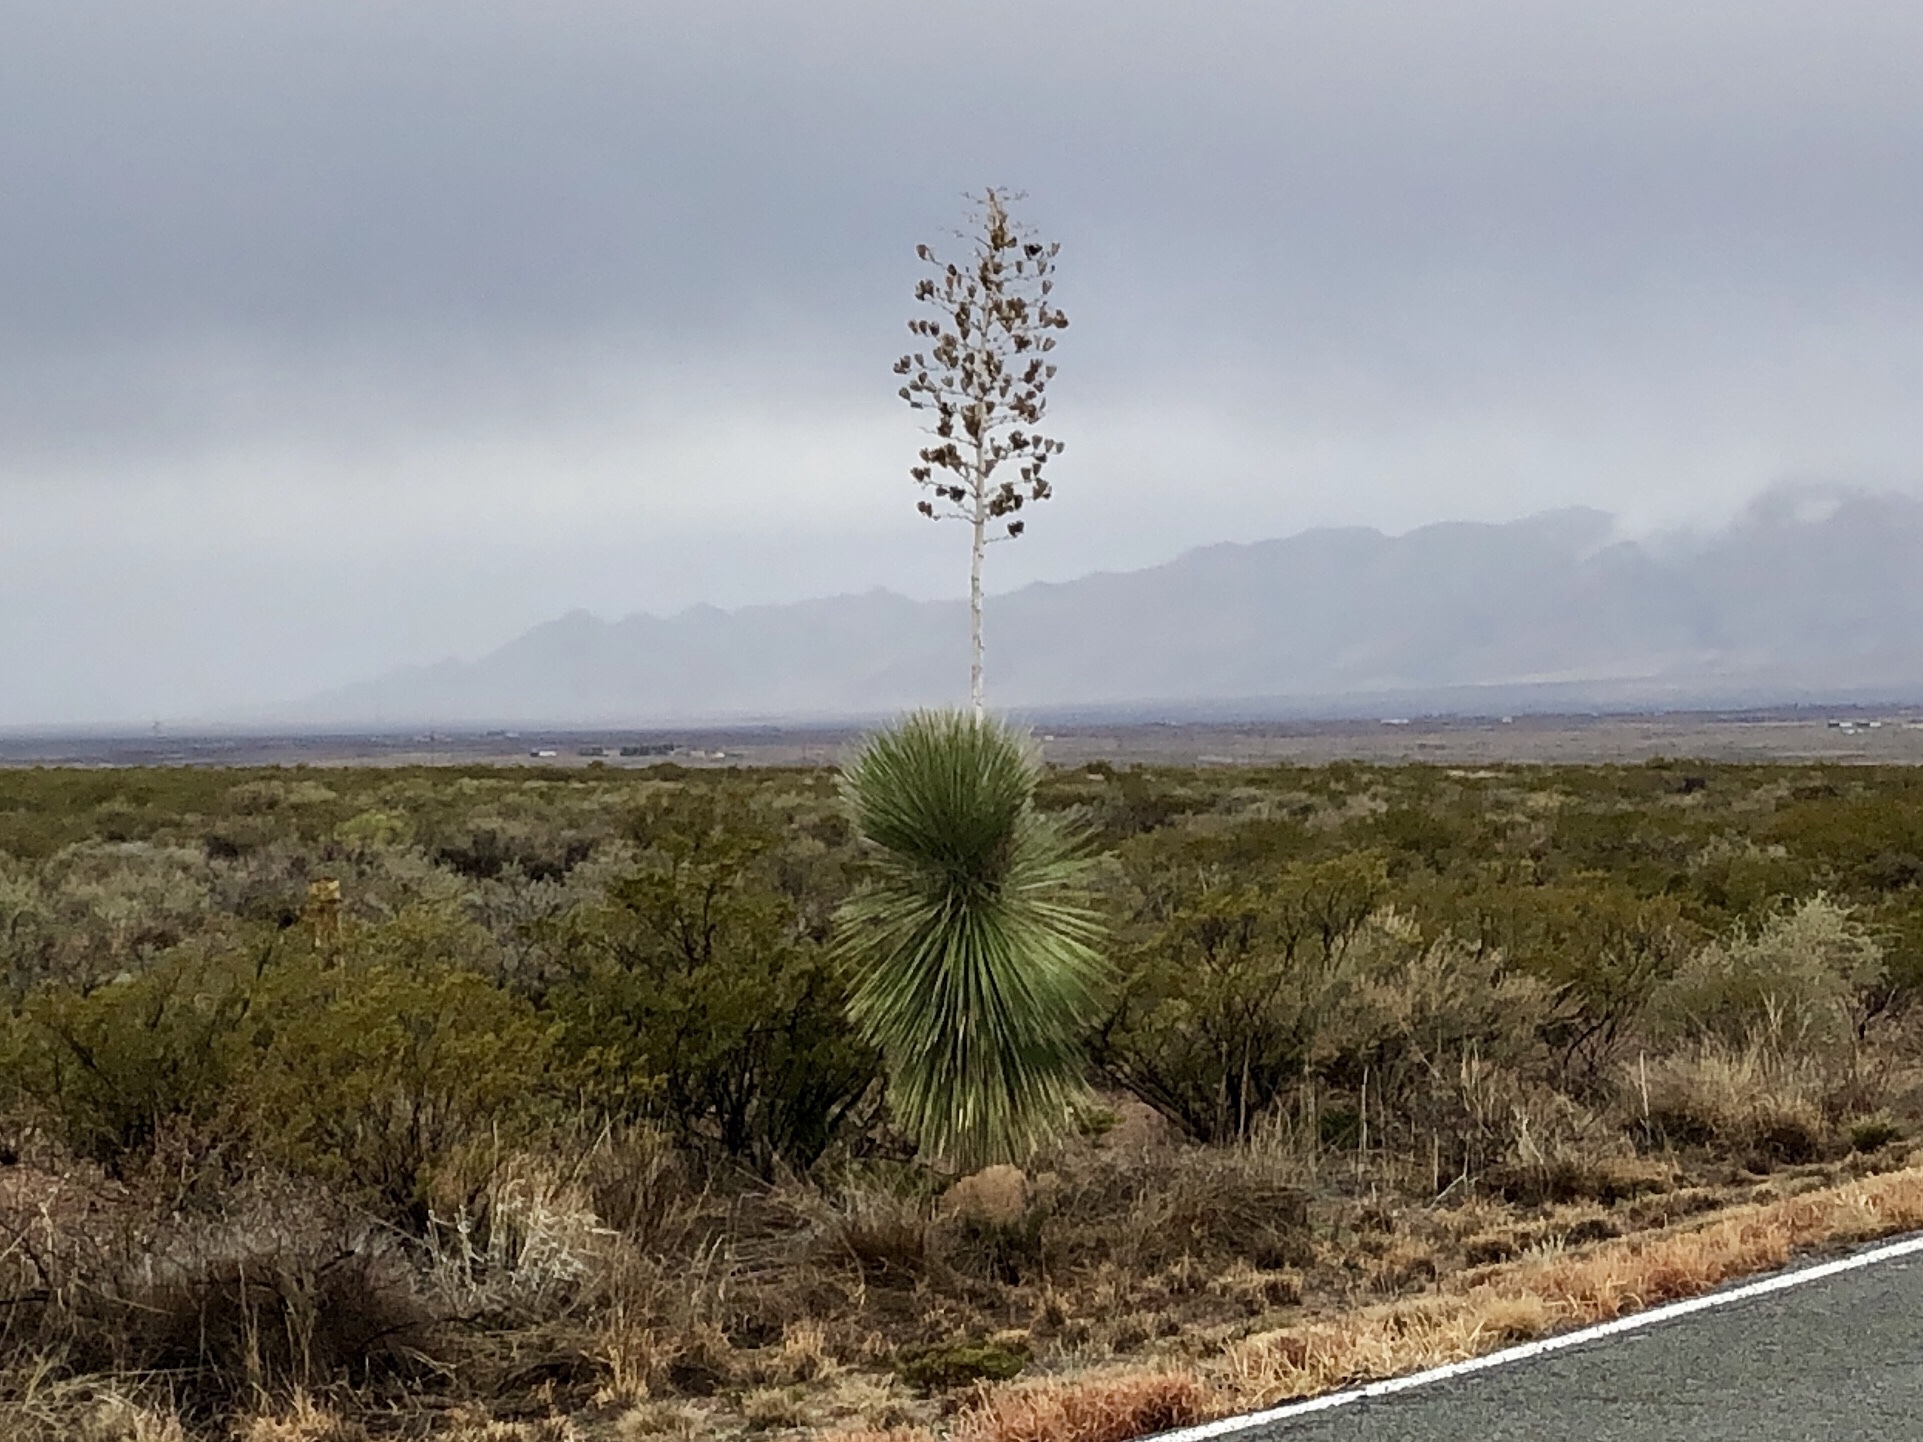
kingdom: Plantae
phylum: Tracheophyta
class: Liliopsida
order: Asparagales
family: Asparagaceae
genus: Yucca
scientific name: Yucca elata
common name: Palmella
